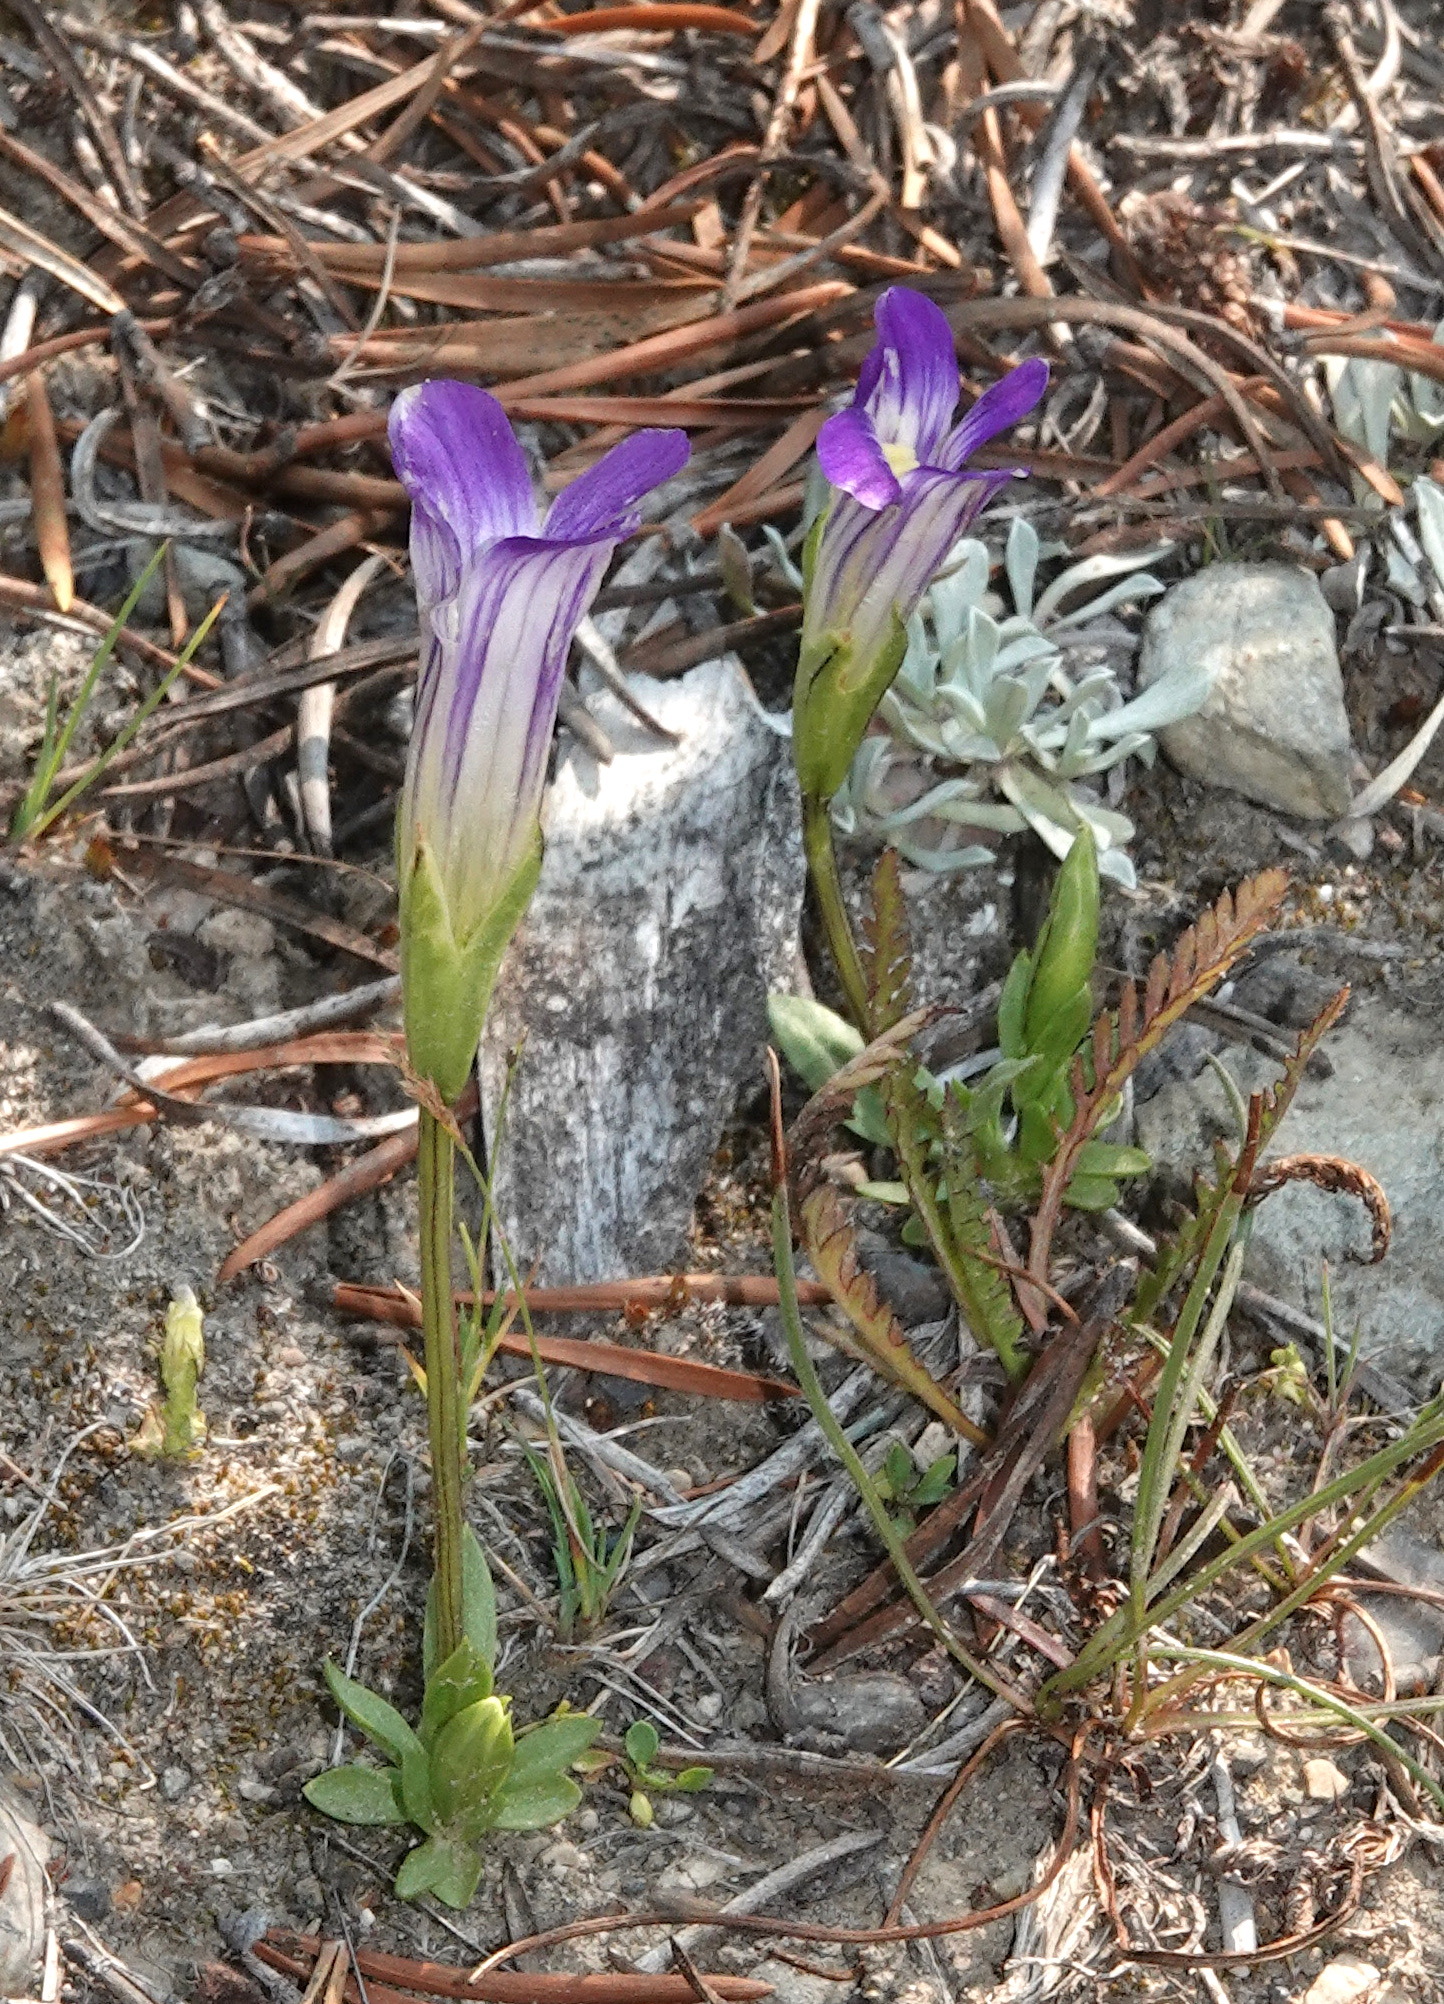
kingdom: Plantae
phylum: Tracheophyta
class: Magnoliopsida
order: Gentianales
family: Gentianaceae
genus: Gentianopsis
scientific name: Gentianopsis holopetala
